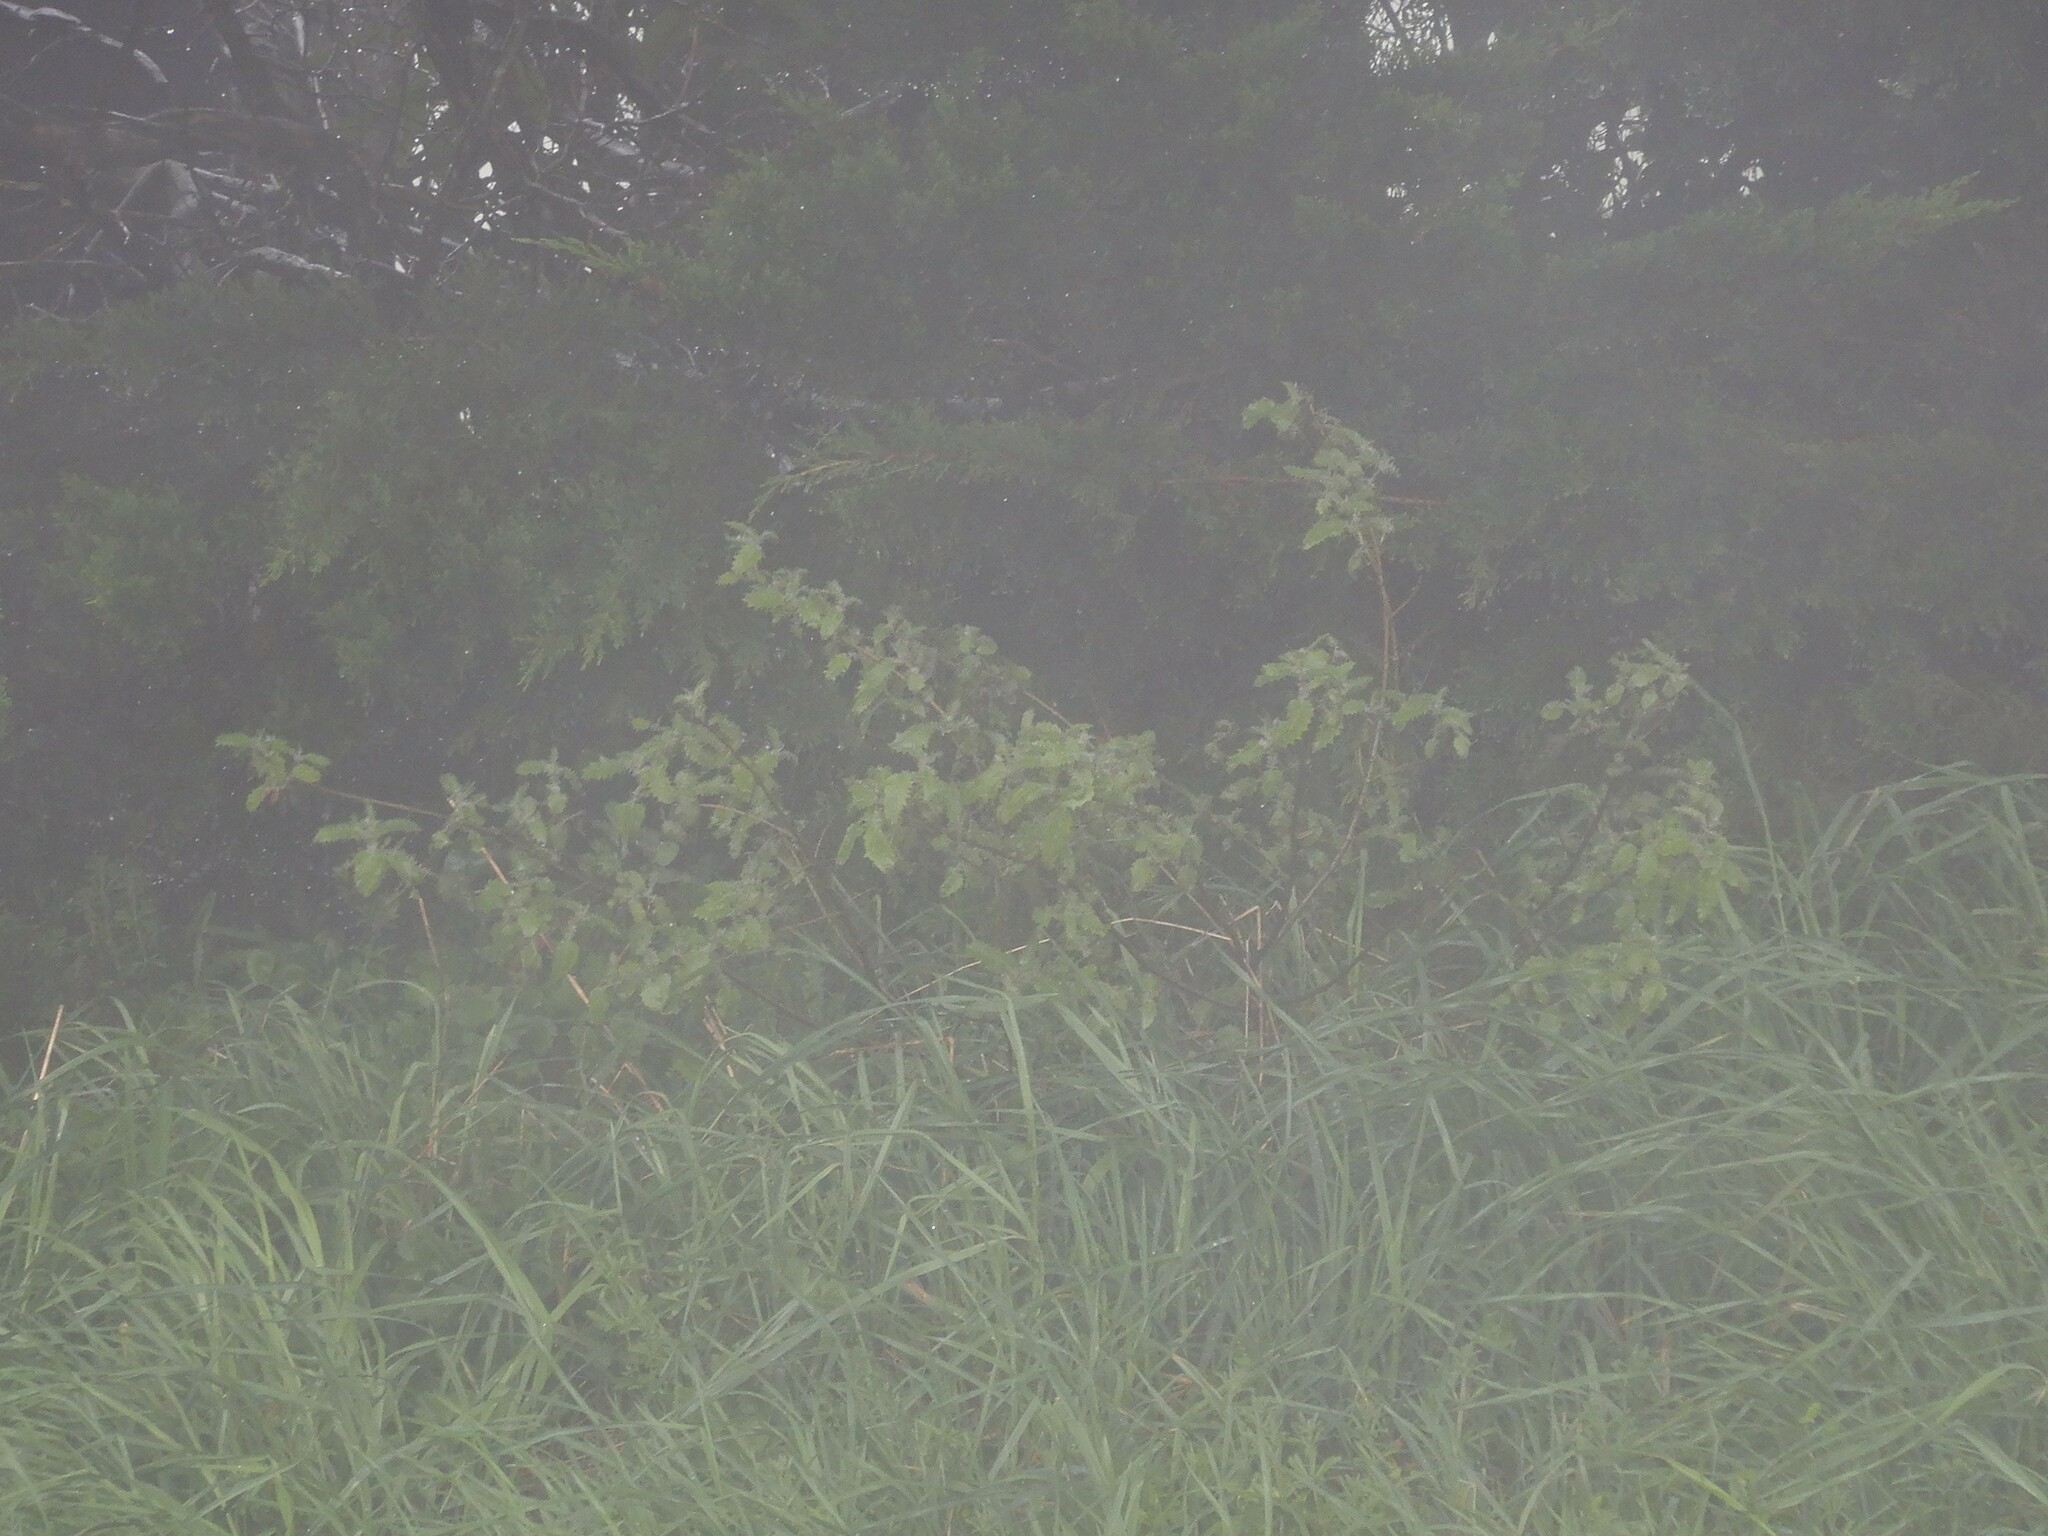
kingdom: Plantae
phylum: Tracheophyta
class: Magnoliopsida
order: Rosales
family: Urticaceae
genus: Urtica
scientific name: Urtica ferox
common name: Tree nettle
